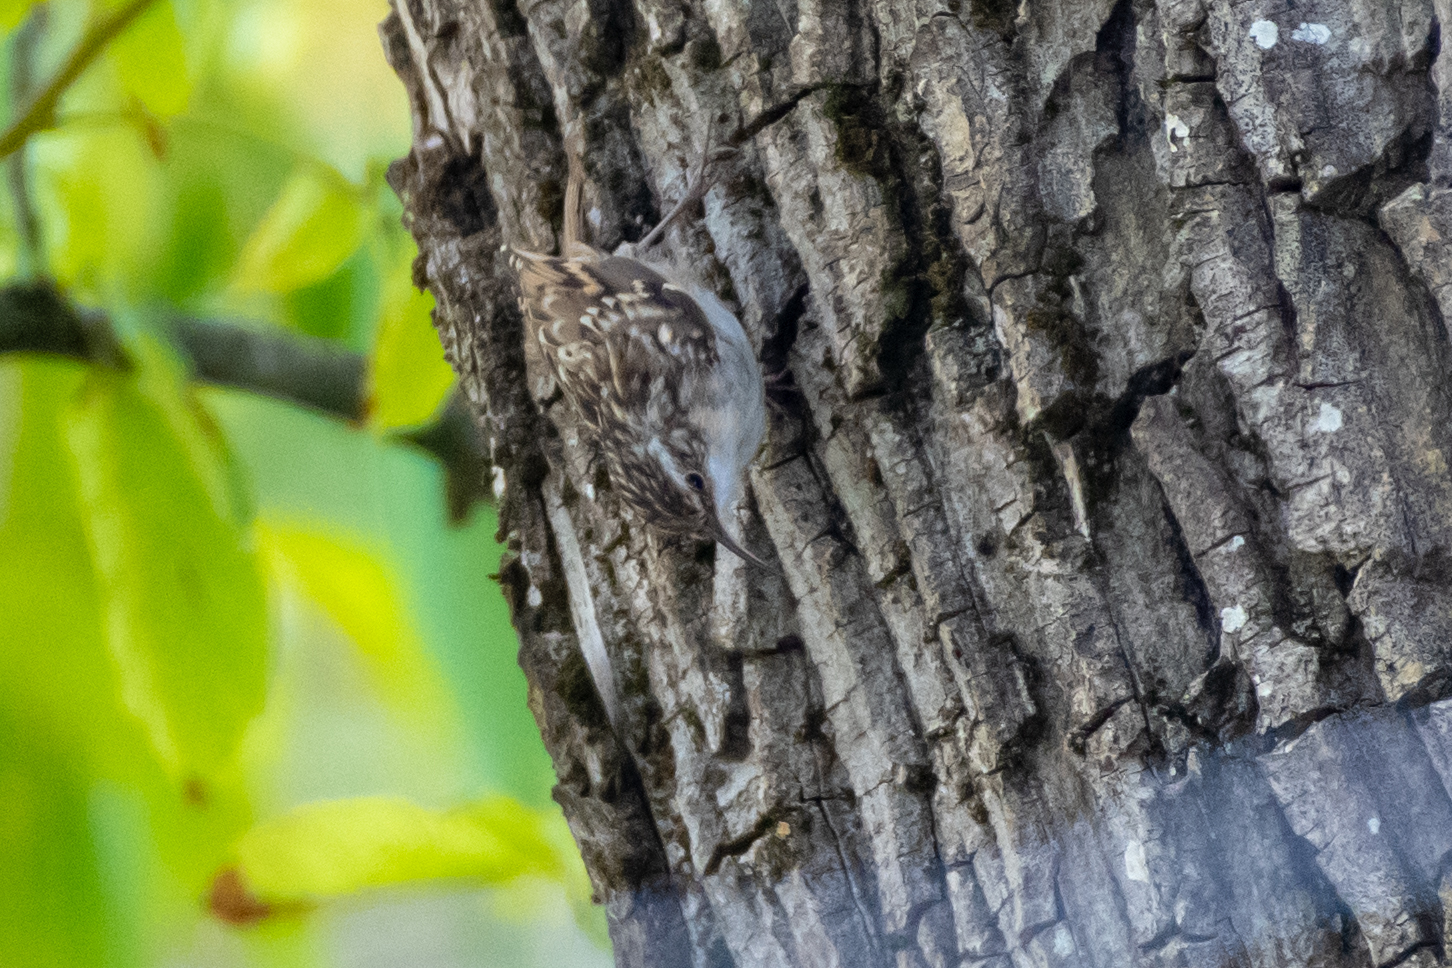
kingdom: Animalia
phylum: Chordata
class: Aves
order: Passeriformes
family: Certhiidae
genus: Certhia
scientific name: Certhia brachydactyla
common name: Short-toed treecreeper
